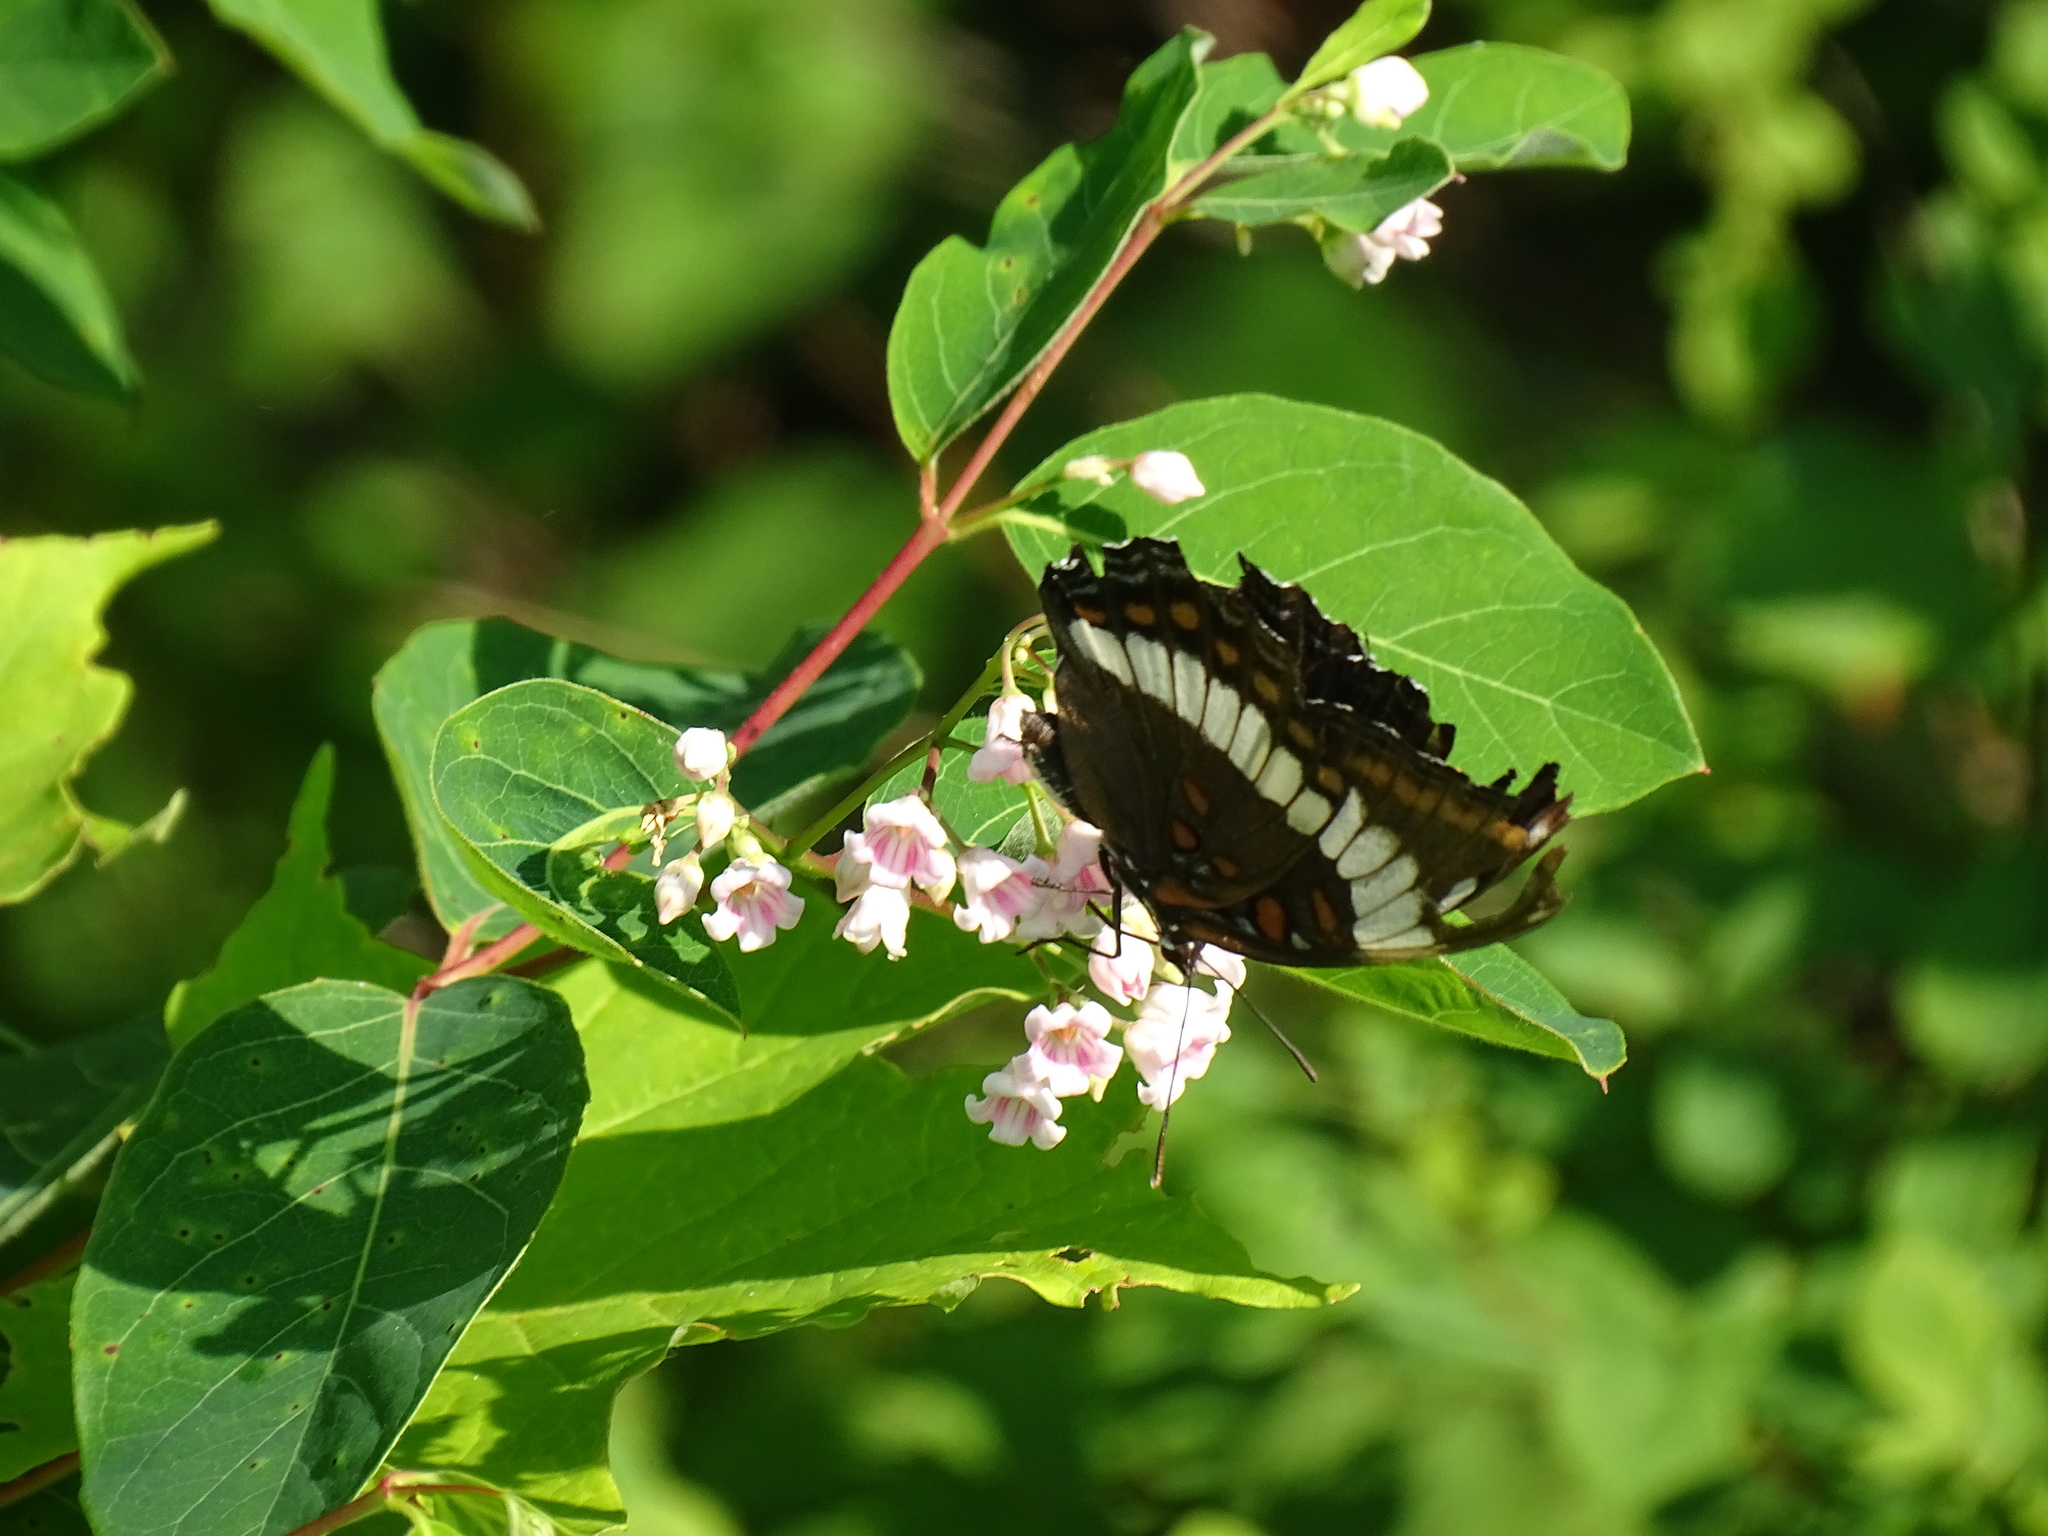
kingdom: Animalia
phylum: Arthropoda
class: Insecta
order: Lepidoptera
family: Nymphalidae
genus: Limenitis
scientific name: Limenitis arthemis
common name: Red-spotted admiral
